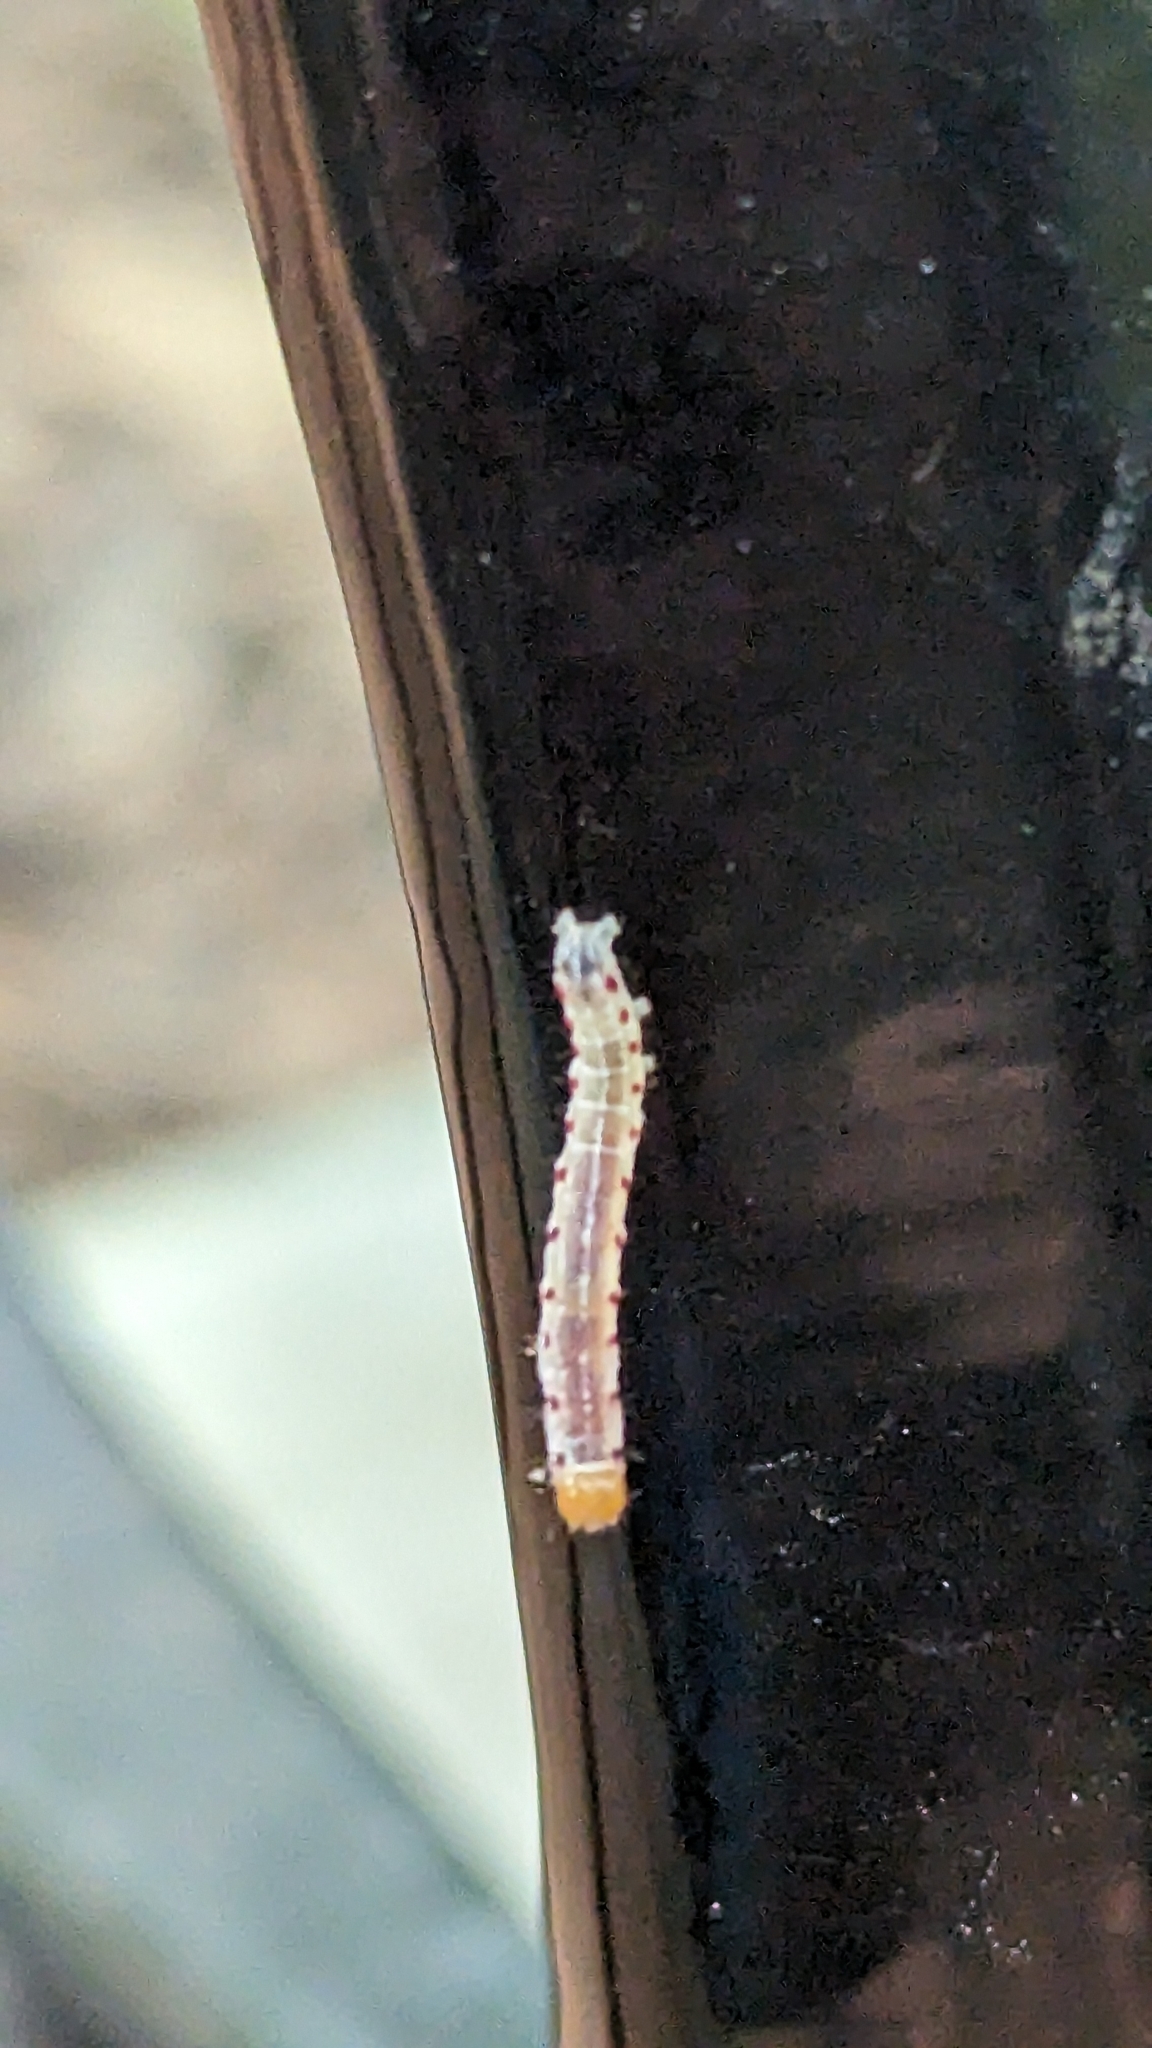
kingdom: Animalia
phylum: Arthropoda
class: Insecta
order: Lepidoptera
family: Noctuidae
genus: Achatia
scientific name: Achatia confusa
